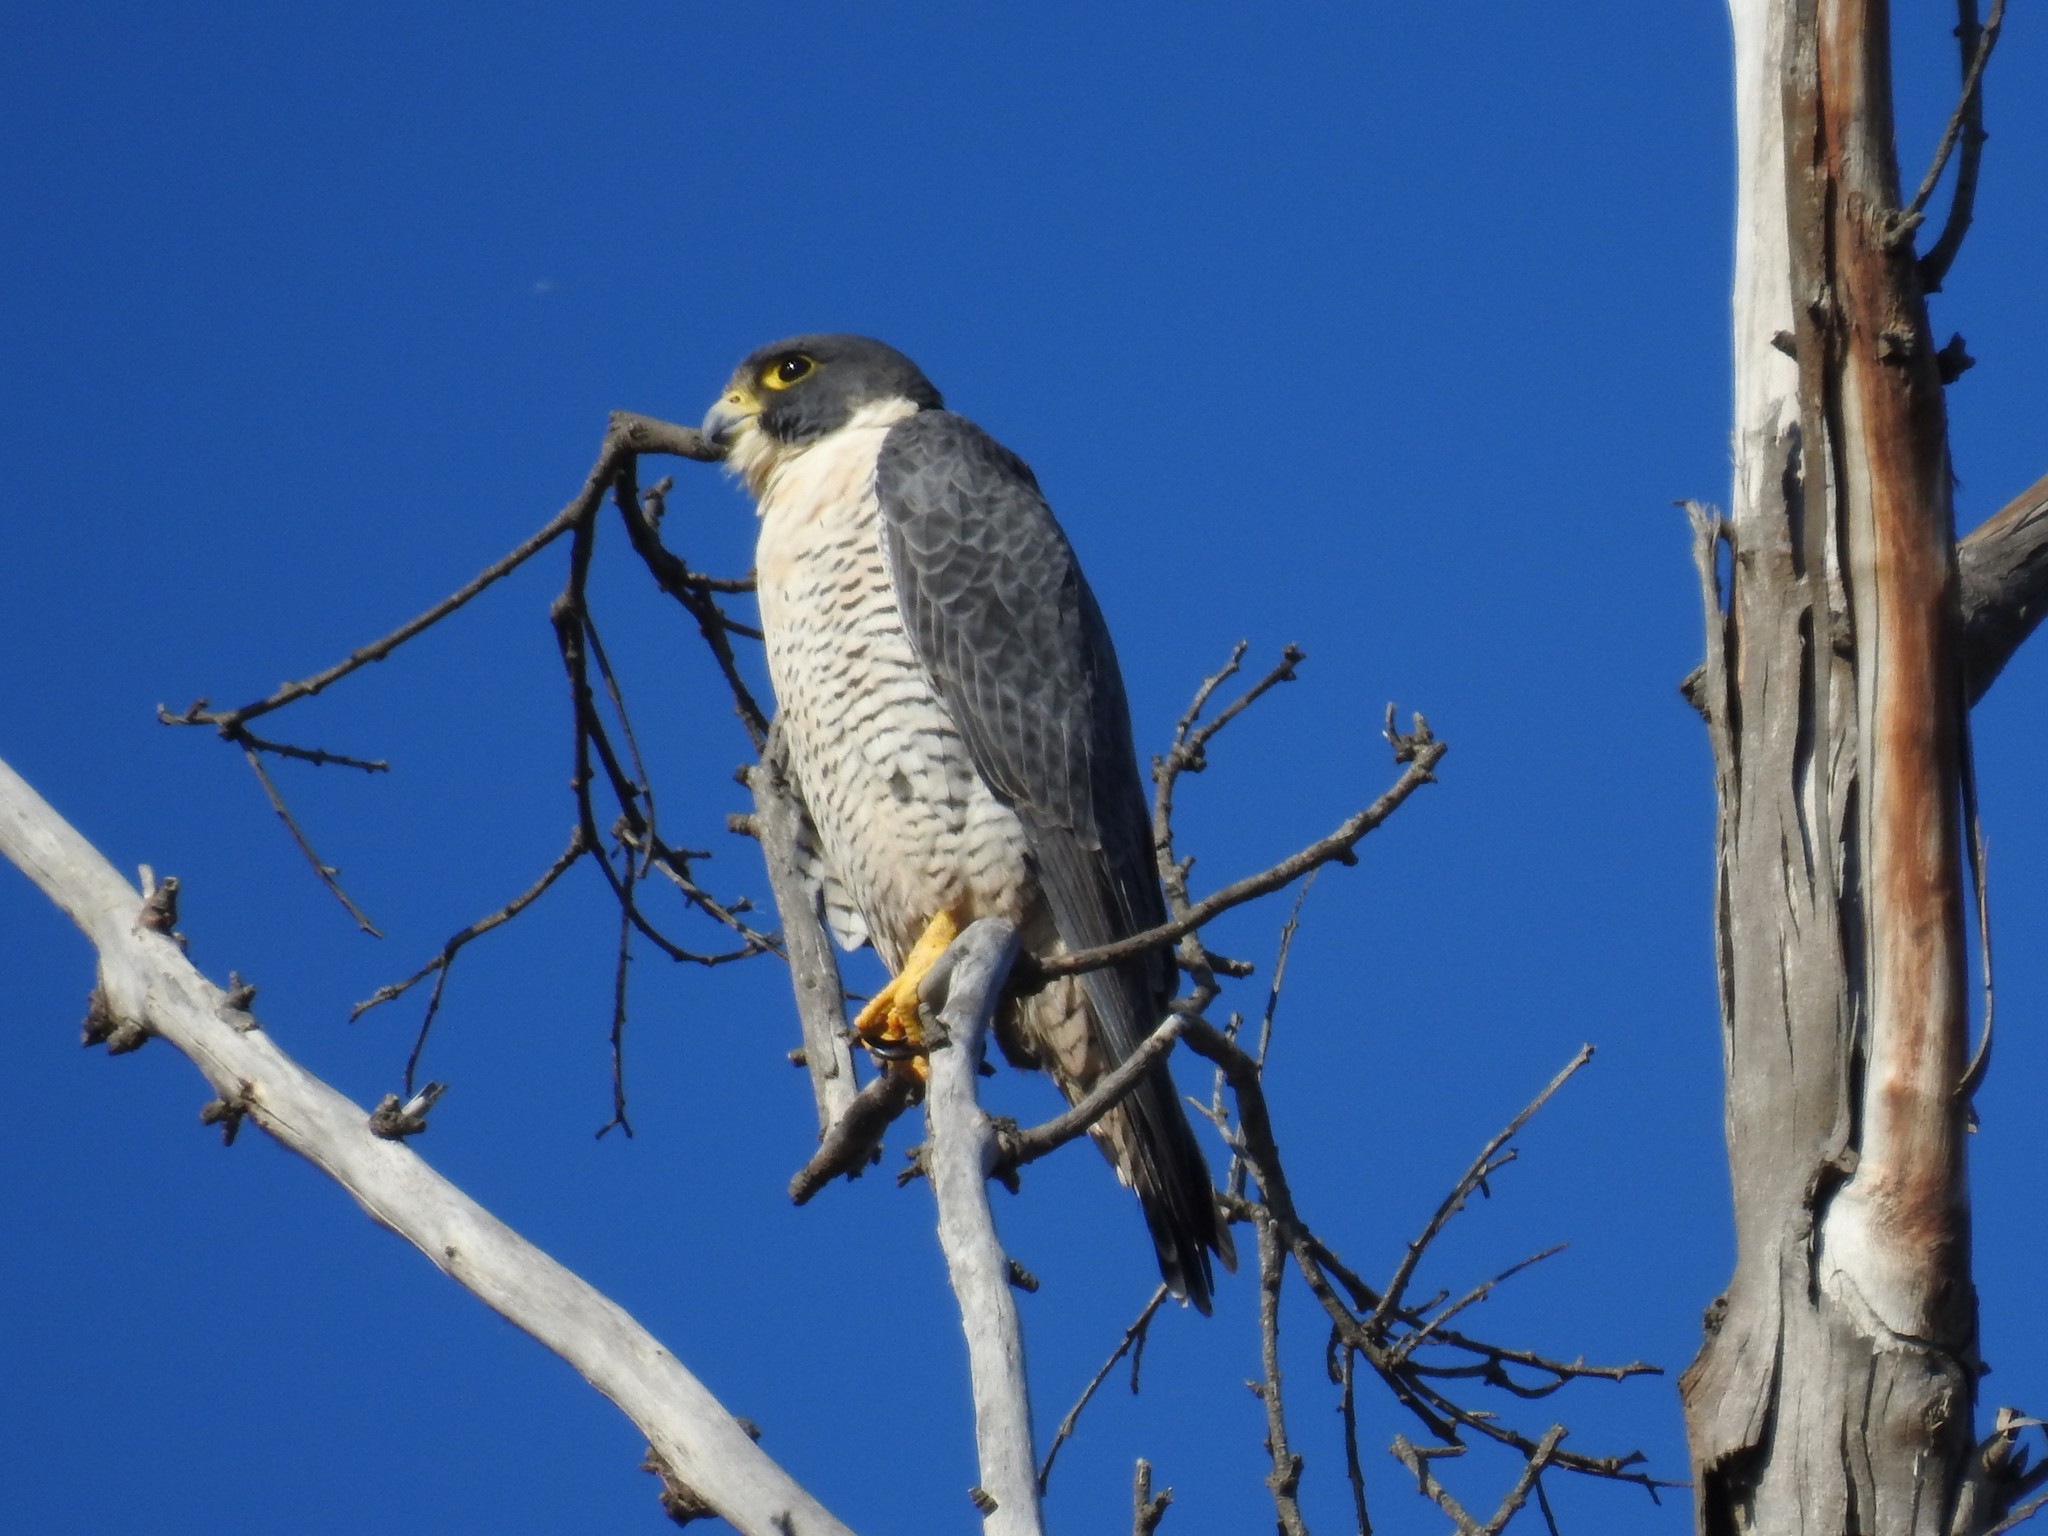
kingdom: Animalia
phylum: Chordata
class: Aves
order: Falconiformes
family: Falconidae
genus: Falco
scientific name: Falco peregrinus
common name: Peregrine falcon
